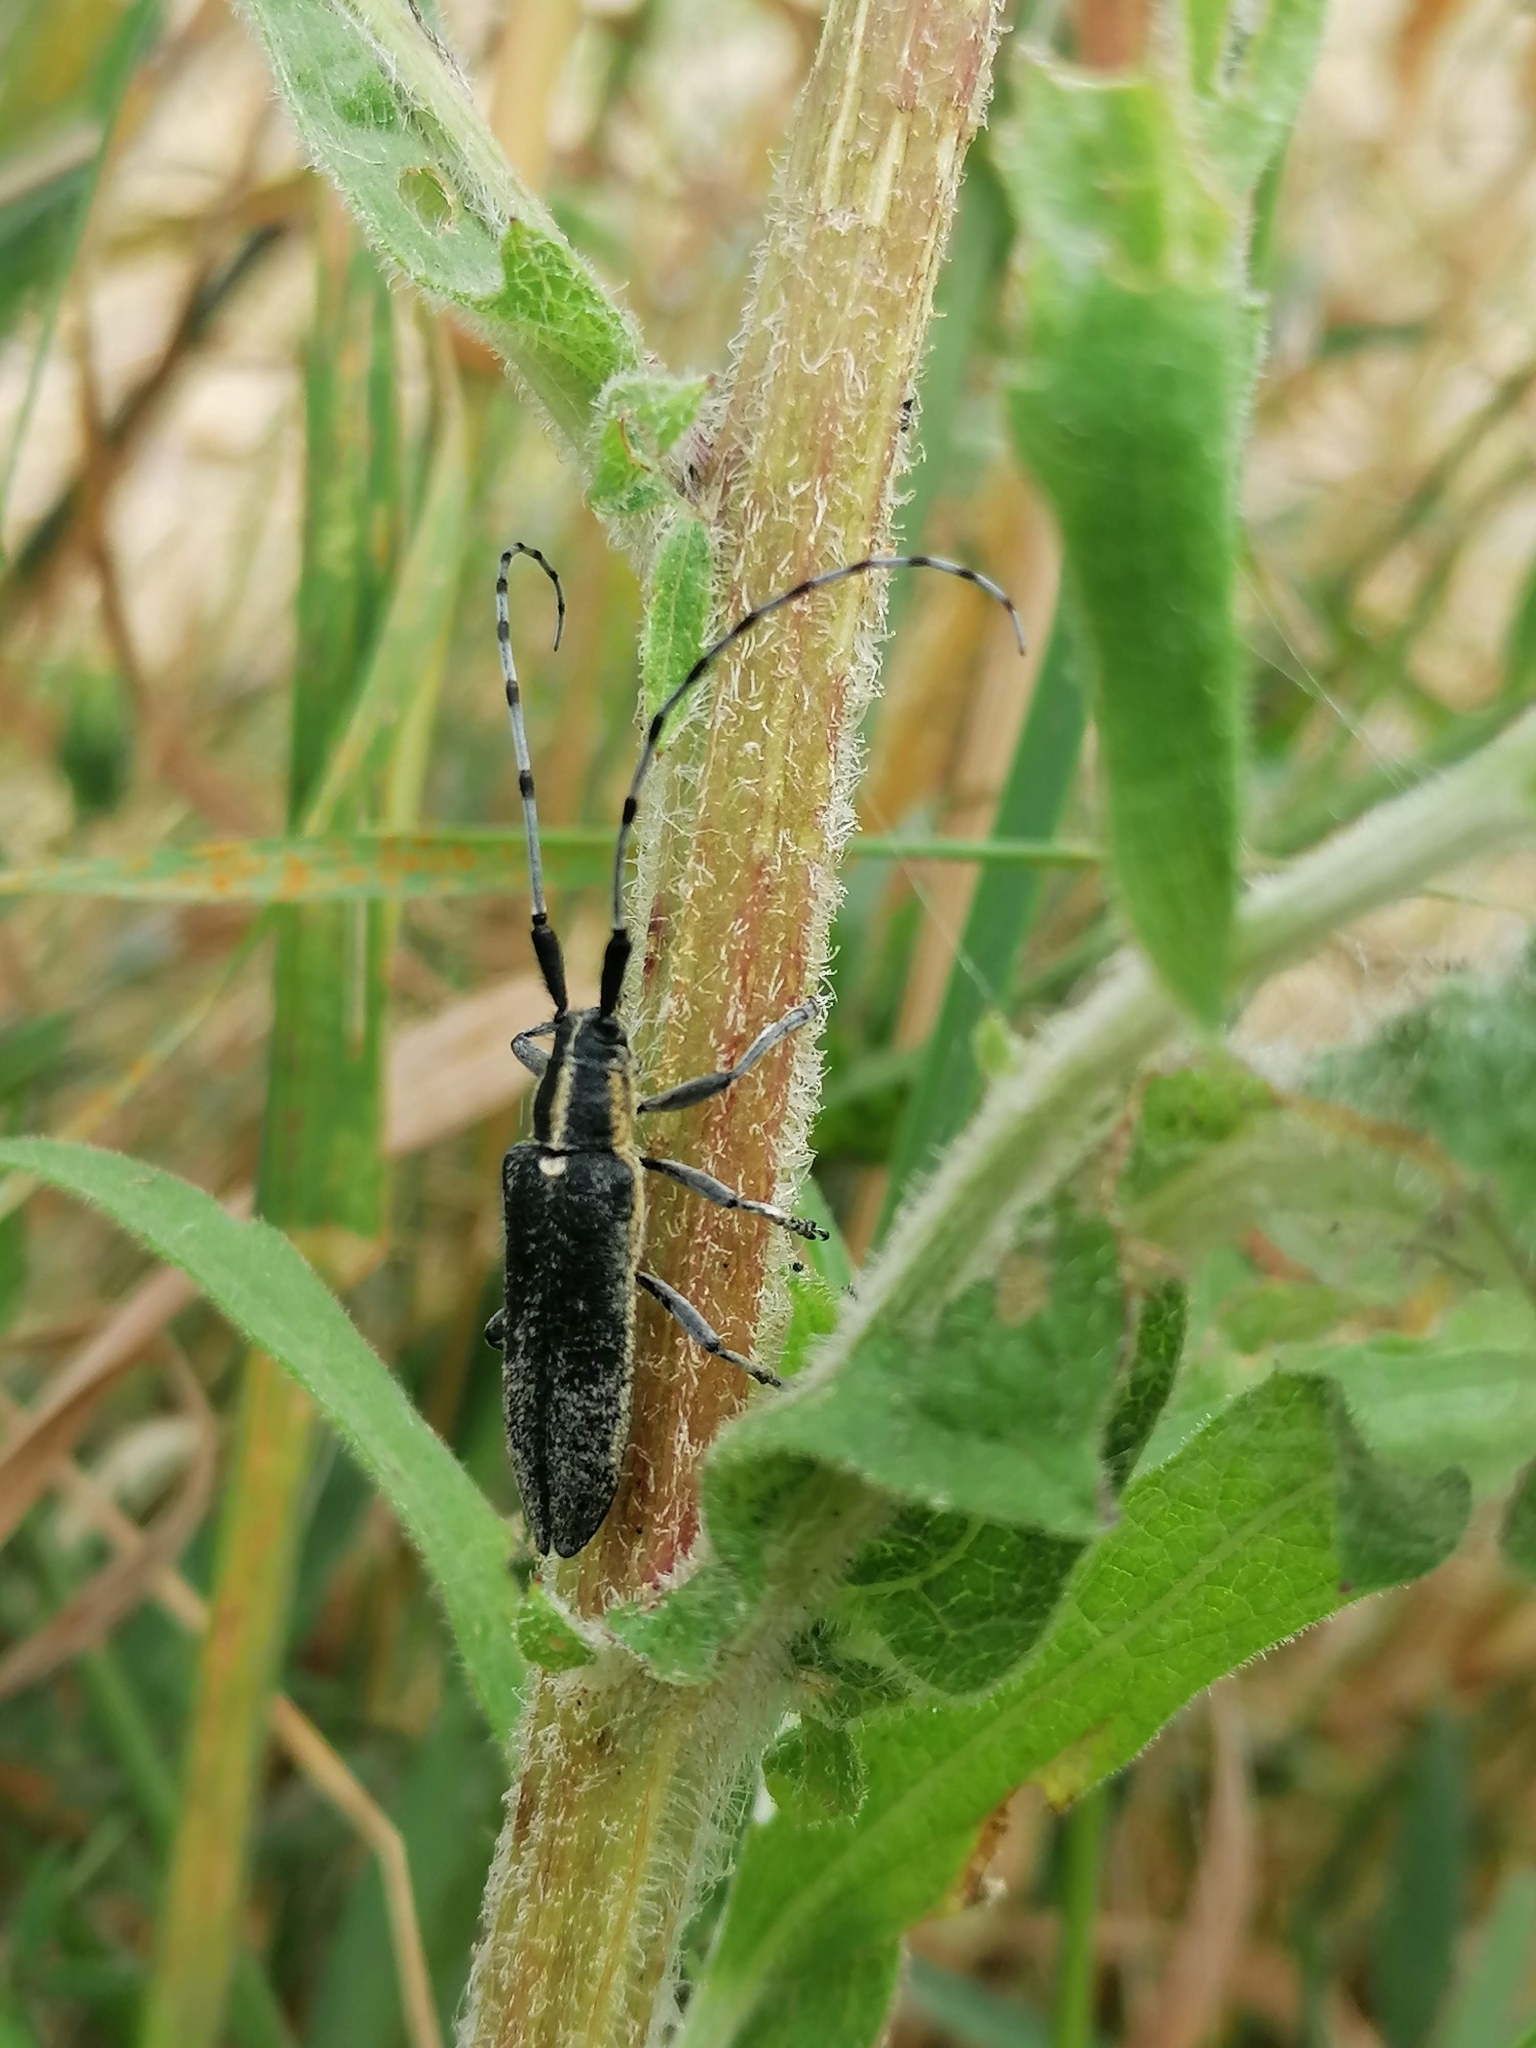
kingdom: Animalia
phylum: Arthropoda
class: Insecta
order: Coleoptera
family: Cerambycidae
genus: Agapanthia
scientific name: Agapanthia villosoviridescens
